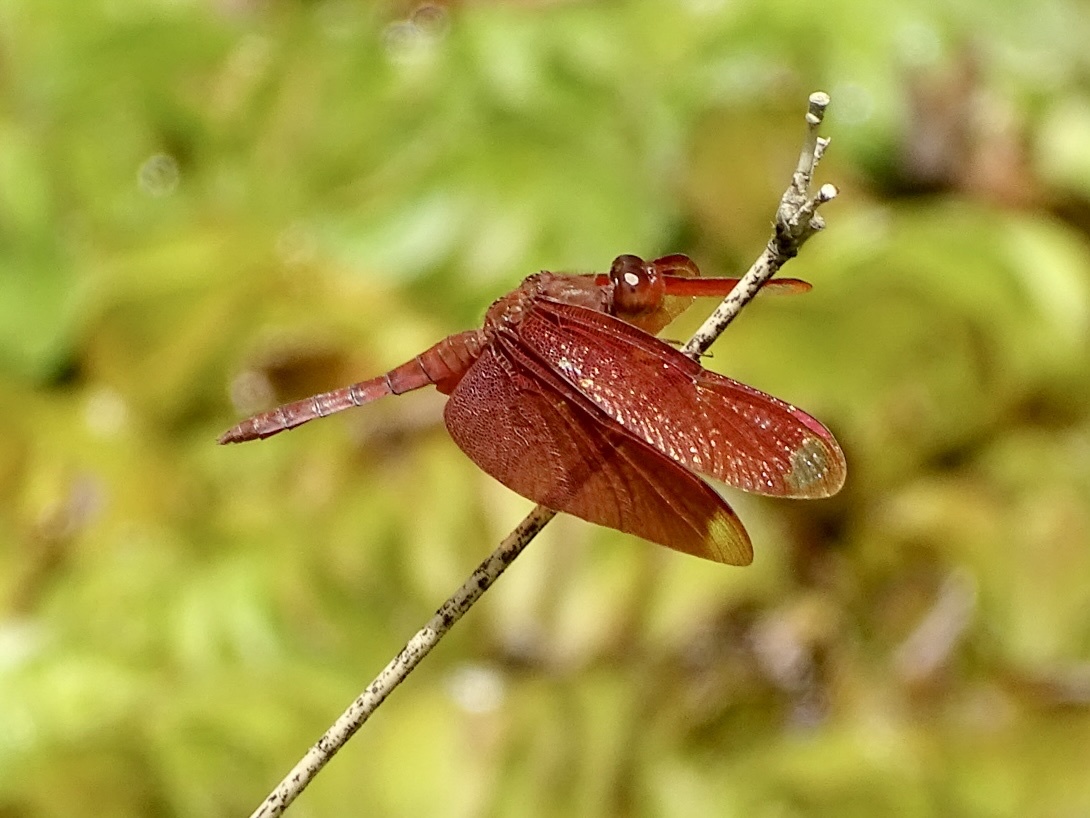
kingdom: Animalia
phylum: Arthropoda
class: Insecta
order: Odonata
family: Libellulidae
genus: Neurothemis
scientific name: Neurothemis fulvia
